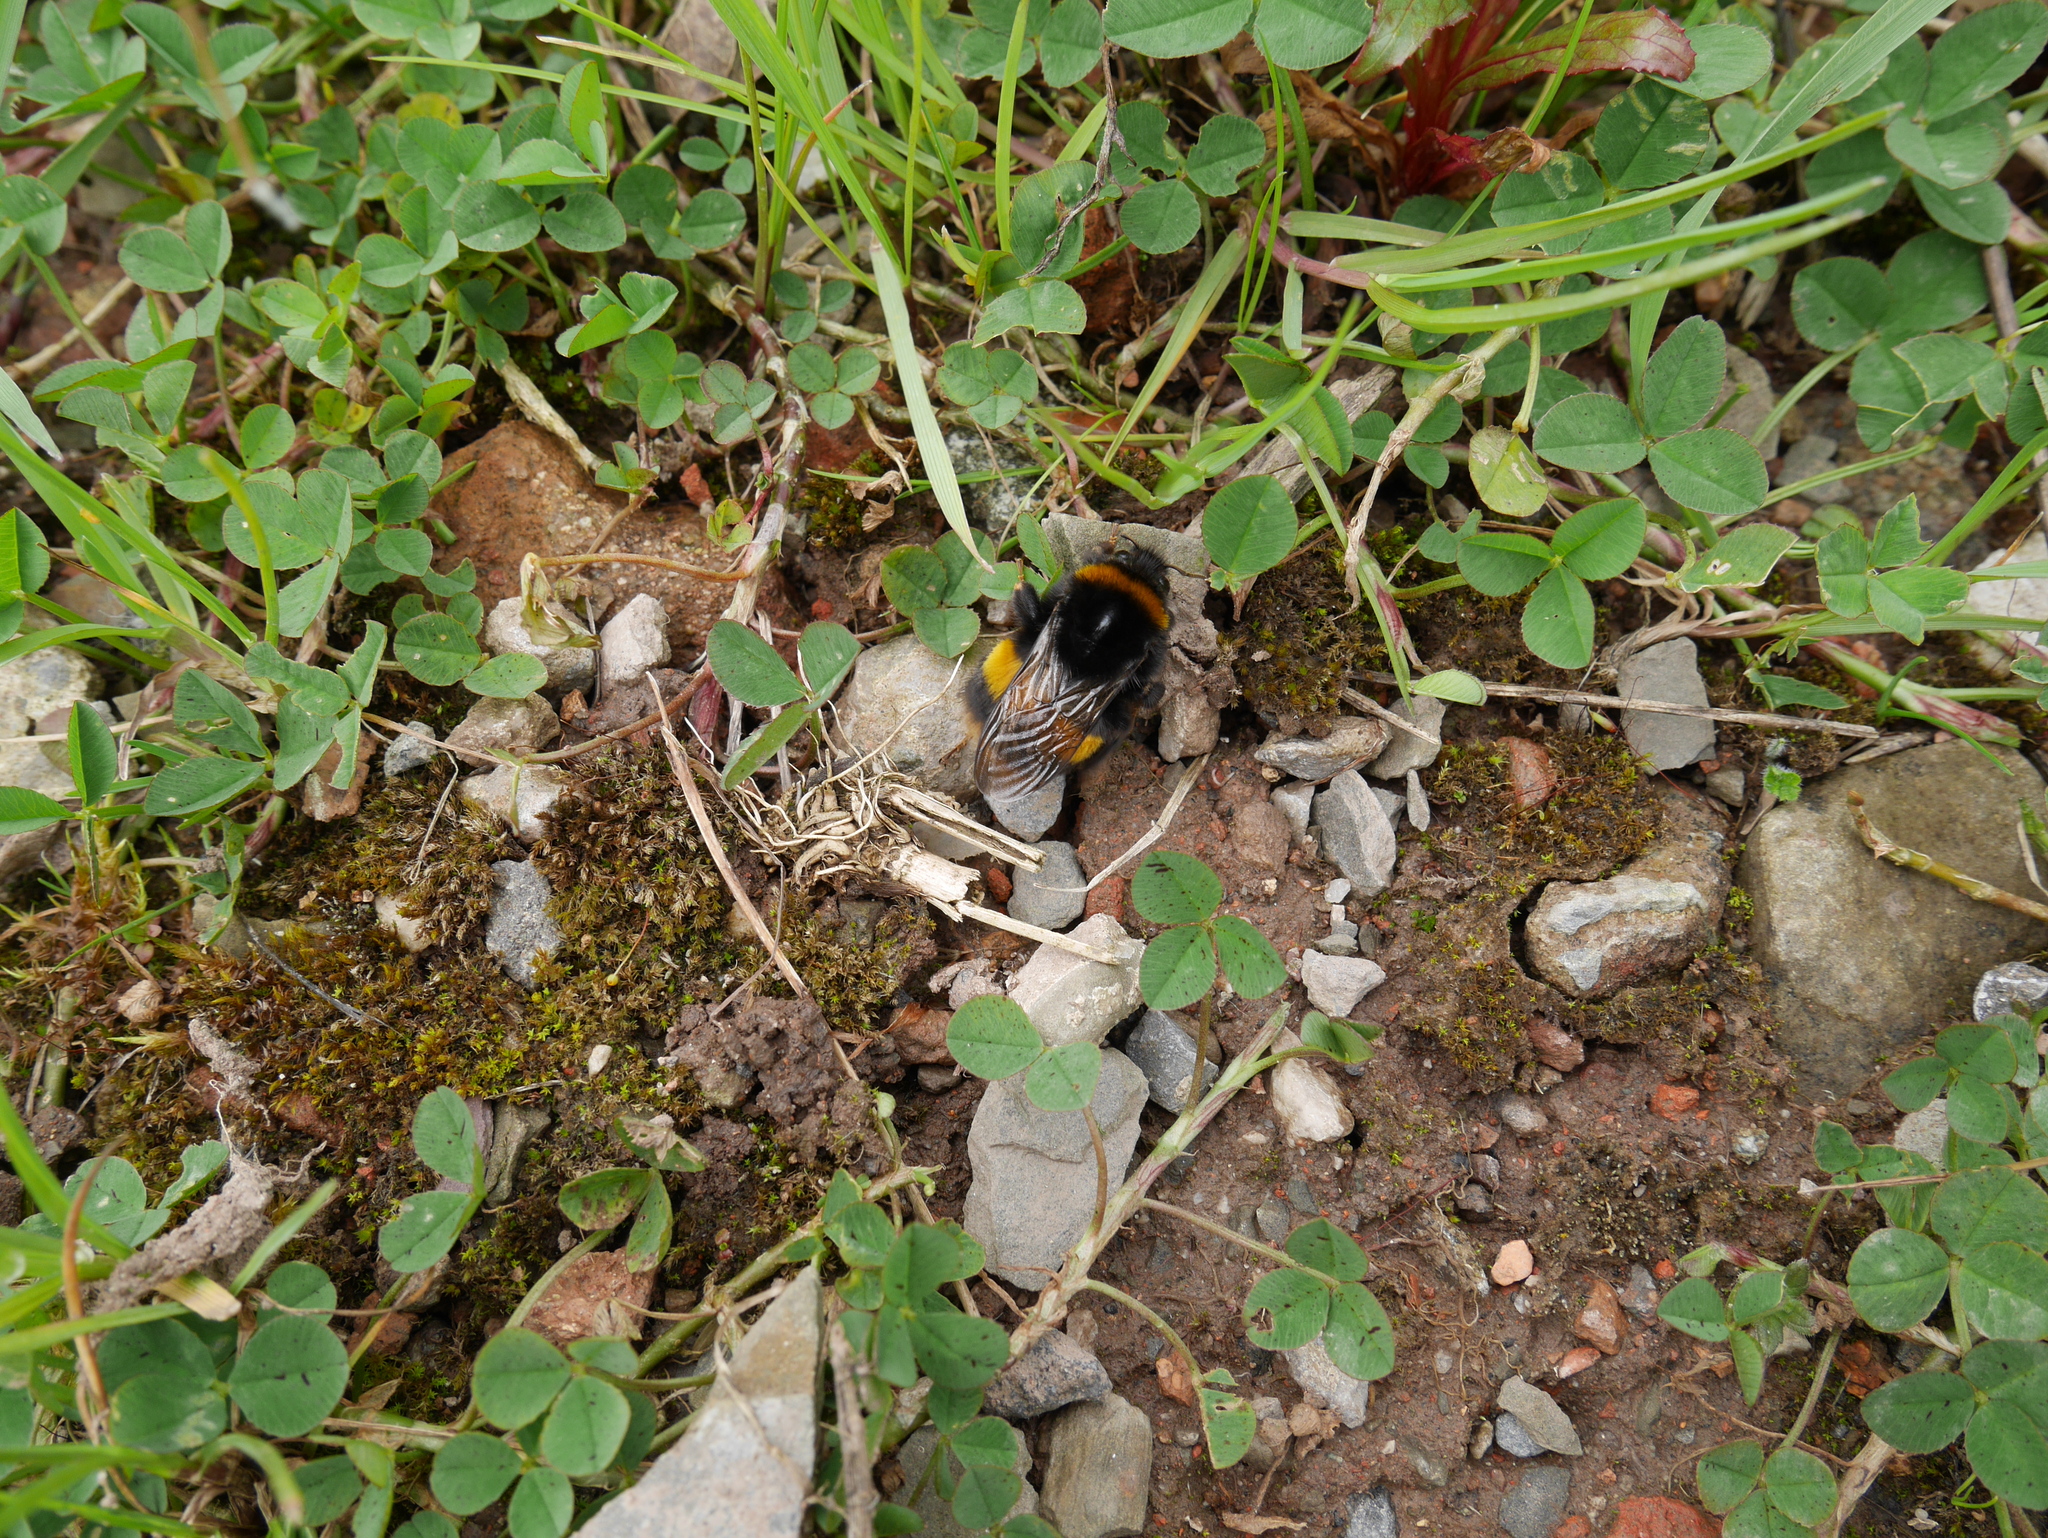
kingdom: Animalia
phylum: Arthropoda
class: Insecta
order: Hymenoptera
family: Apidae
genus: Bombus
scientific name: Bombus terrestris
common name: Buff-tailed bumblebee
